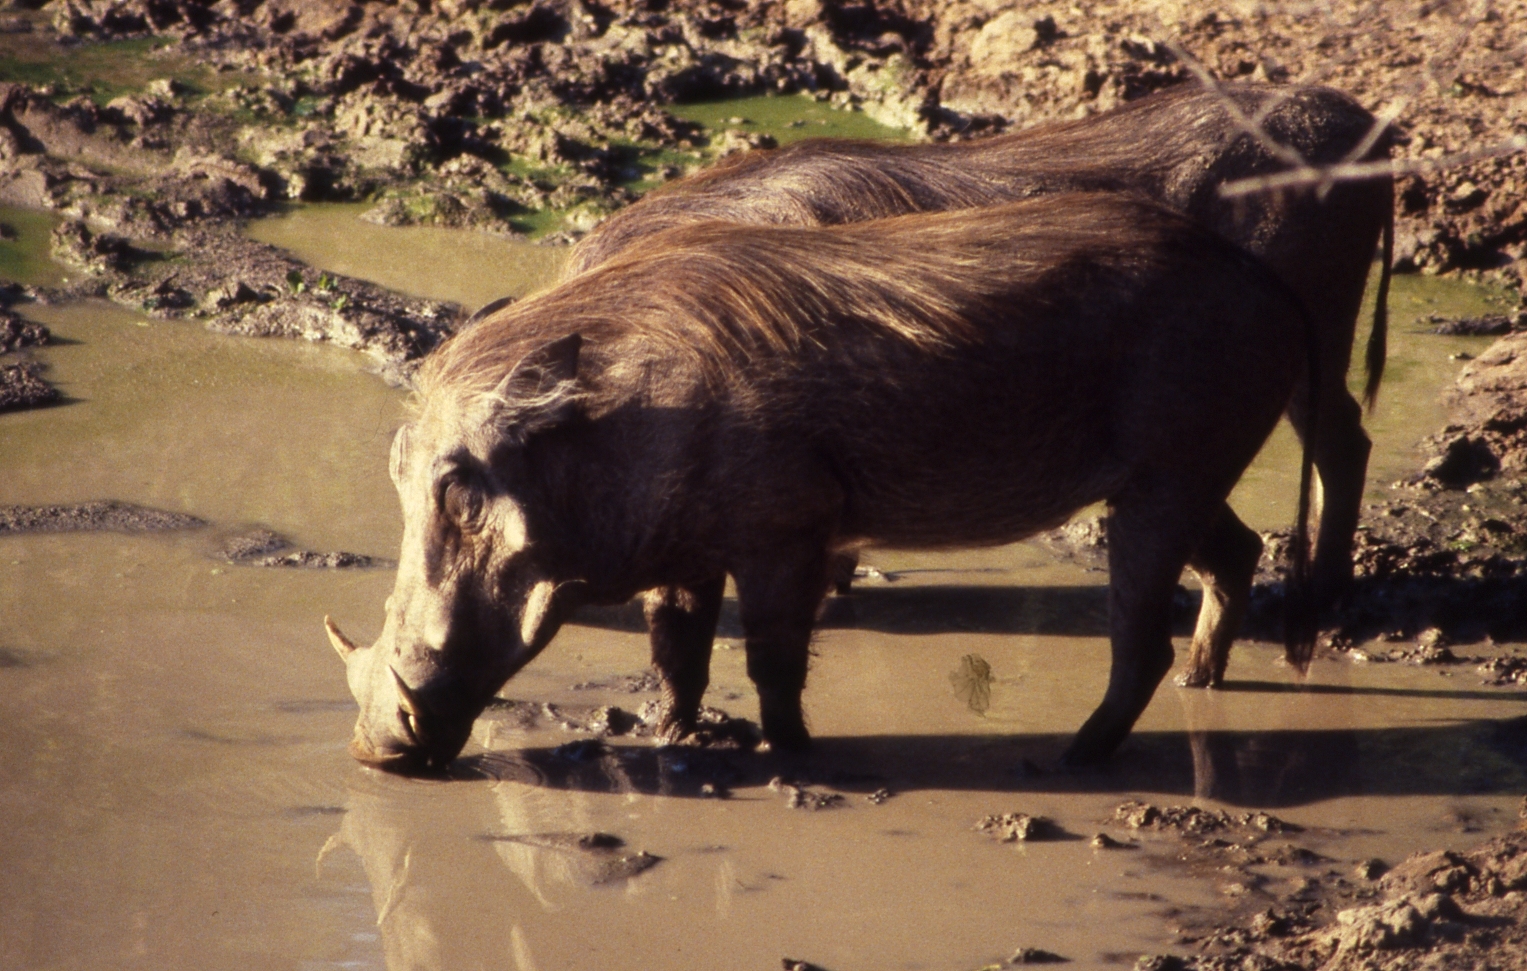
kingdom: Animalia
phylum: Chordata
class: Mammalia
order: Artiodactyla
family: Suidae
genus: Phacochoerus
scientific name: Phacochoerus africanus
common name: Common warthog
